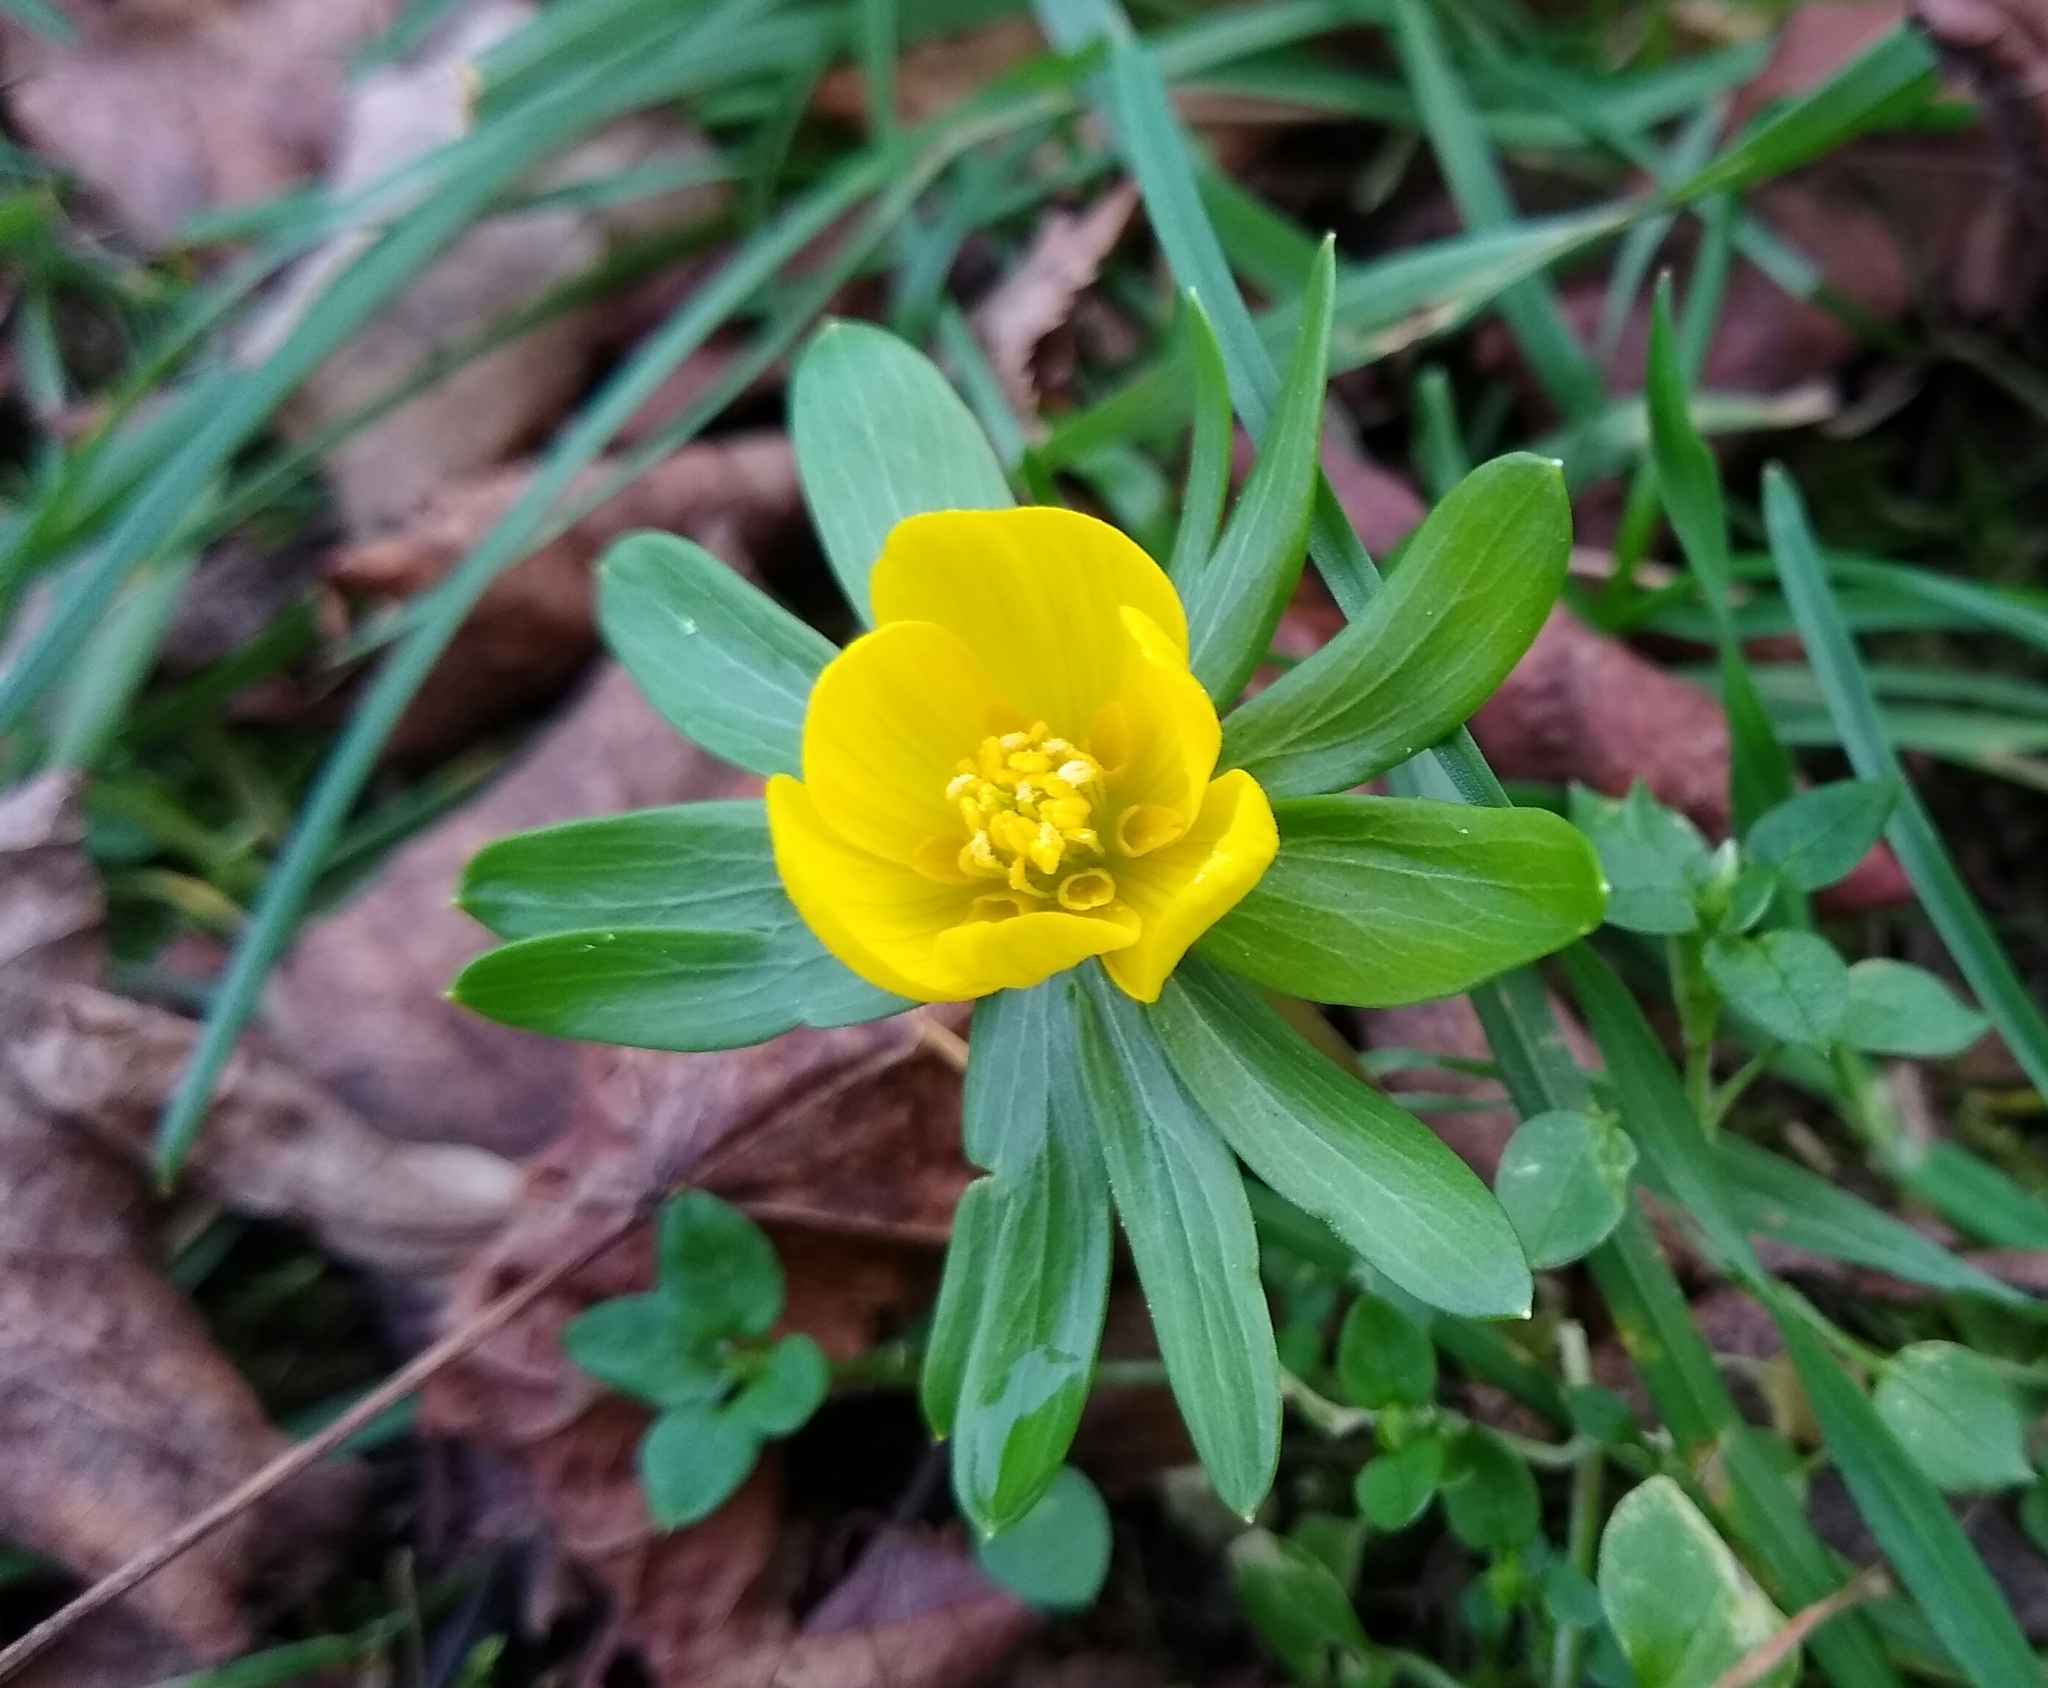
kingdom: Plantae
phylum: Tracheophyta
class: Magnoliopsida
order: Ranunculales
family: Ranunculaceae
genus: Eranthis
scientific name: Eranthis hyemalis
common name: Winter aconite
